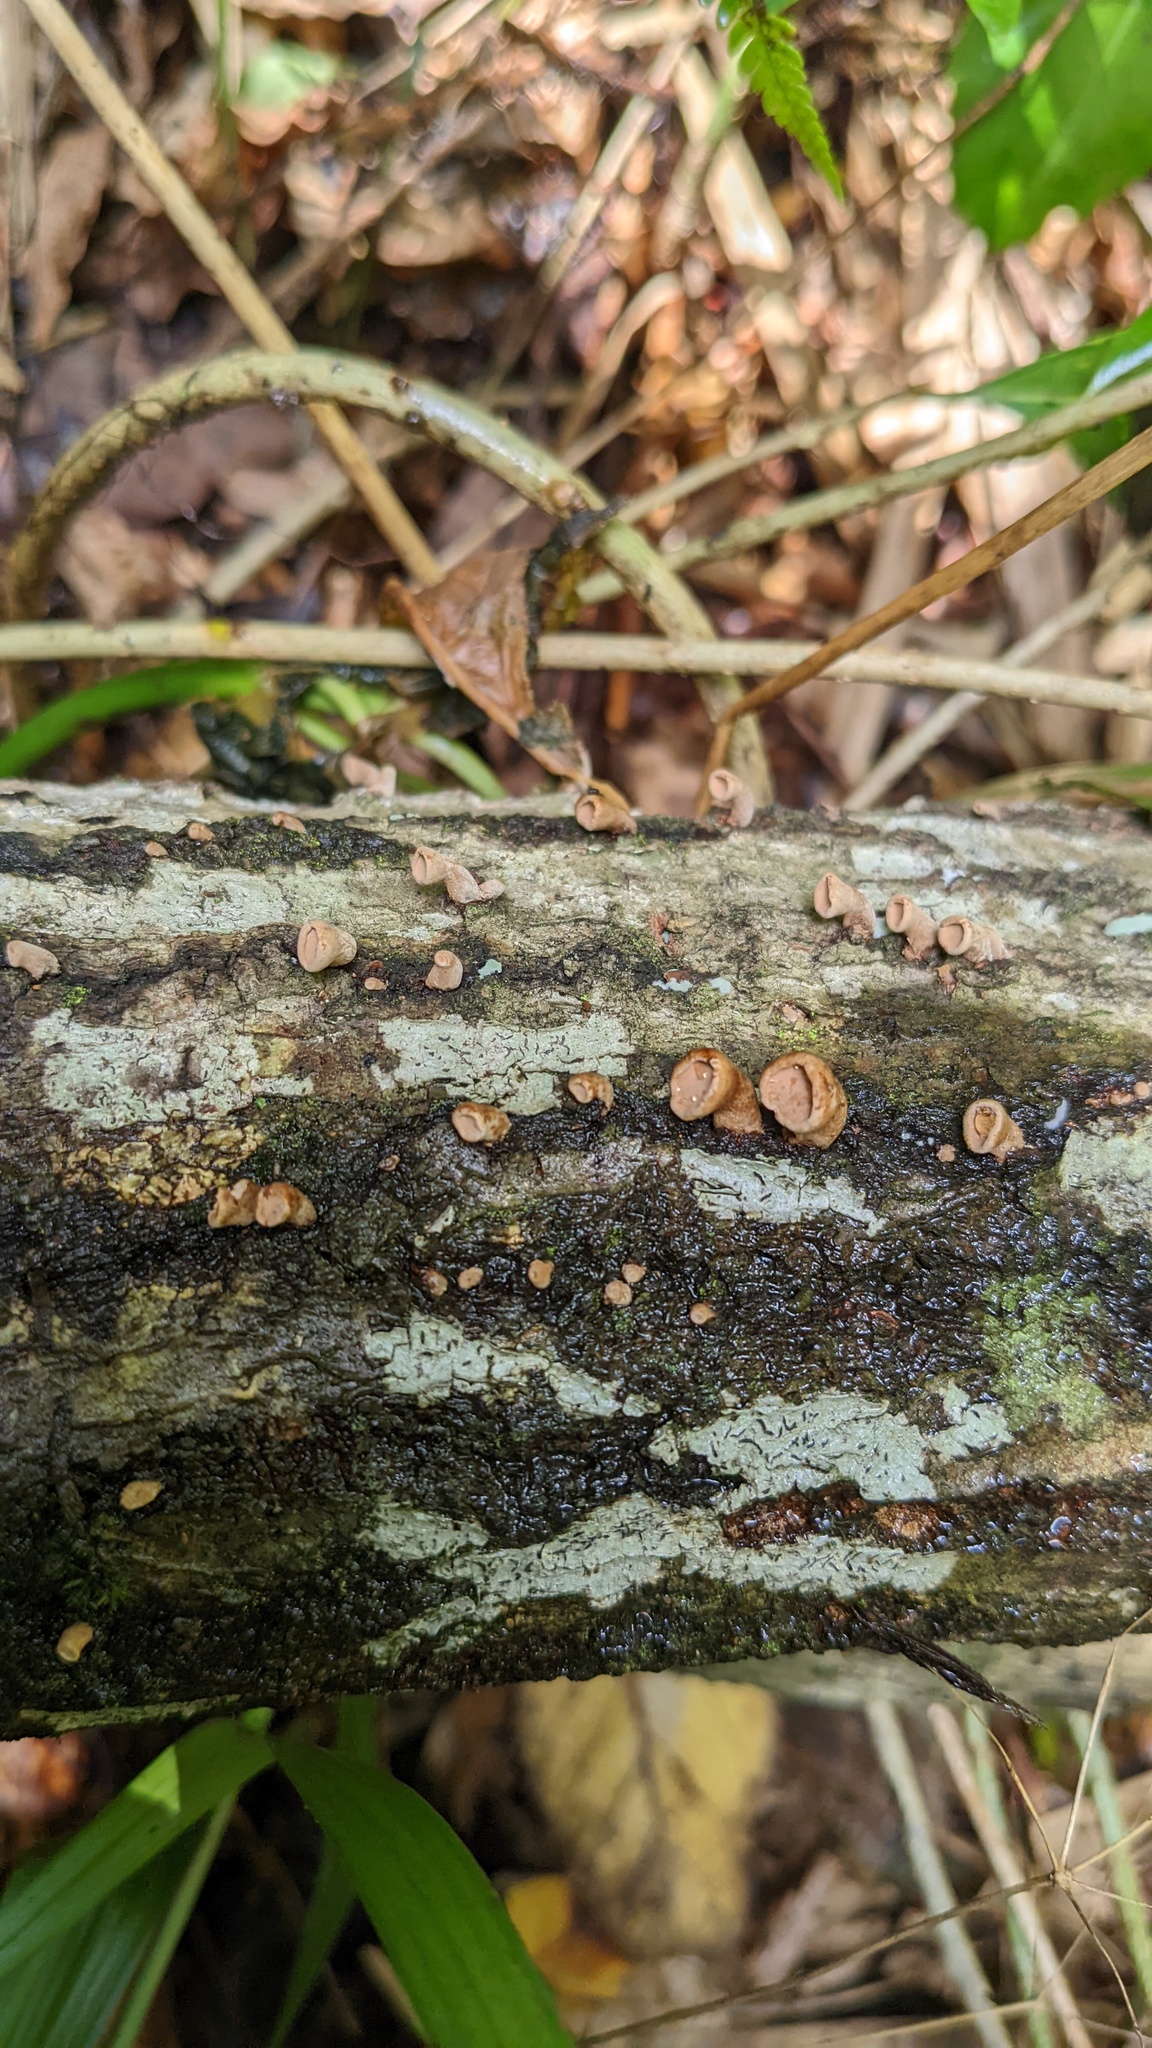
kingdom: Fungi
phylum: Basidiomycota
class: Agaricomycetes
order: Agaricales
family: Schizophyllaceae
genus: Porodisculus
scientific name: Porodisculus pendulus
